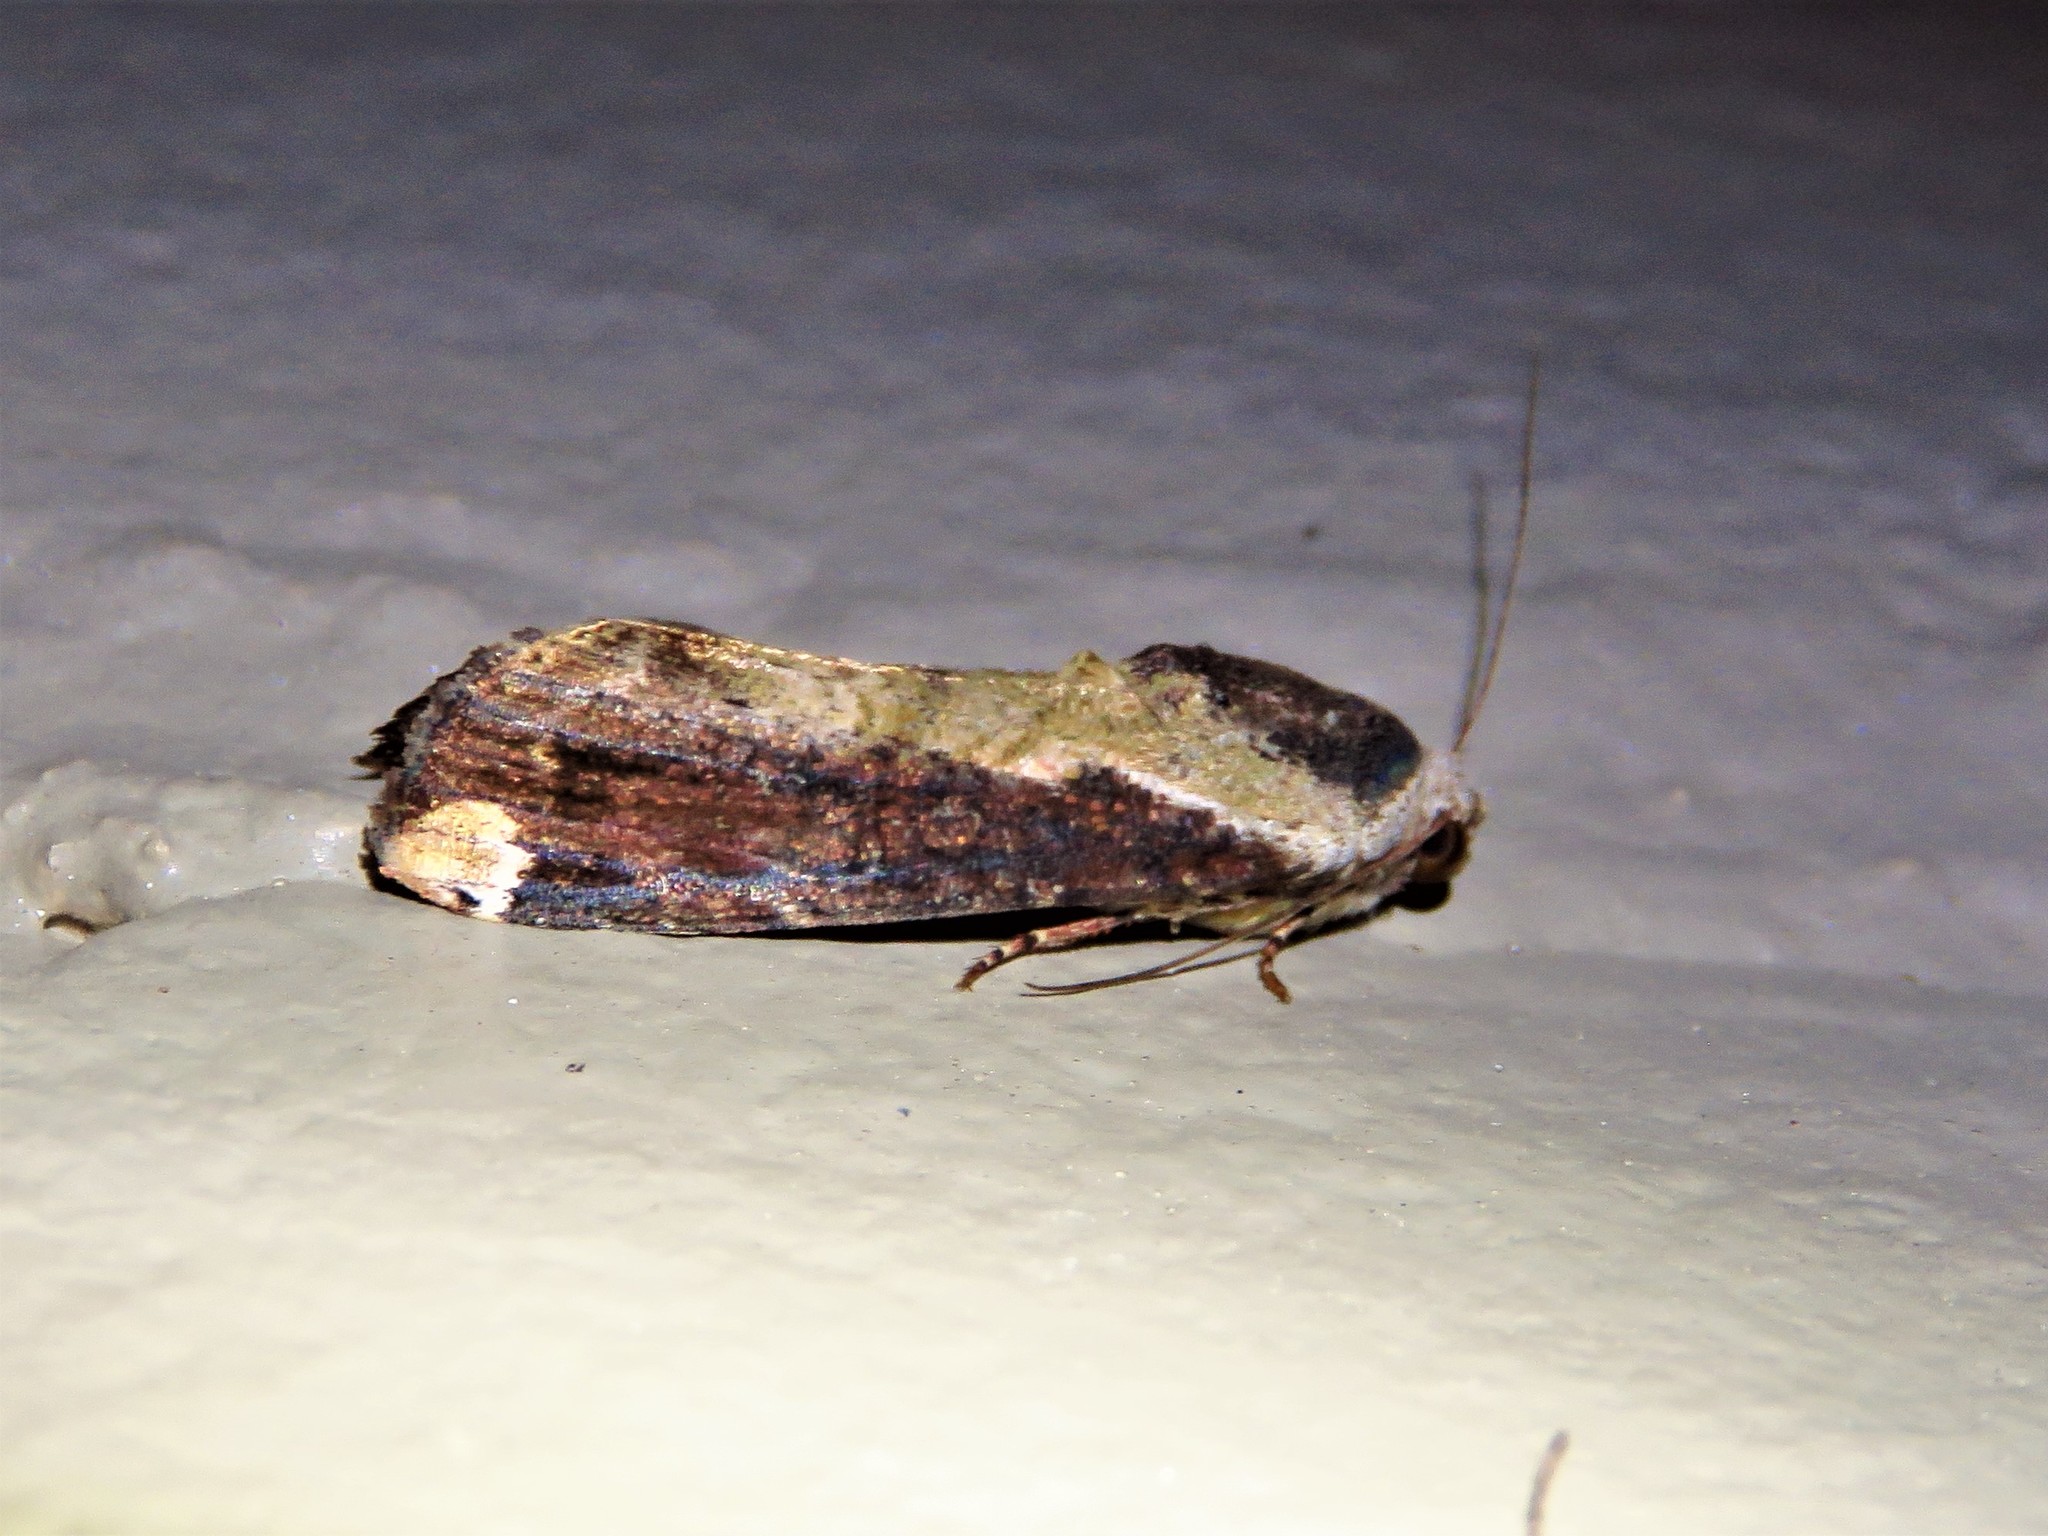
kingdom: Animalia
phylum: Arthropoda
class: Insecta
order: Lepidoptera
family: Noctuidae
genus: Magusa
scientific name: Magusa divaricata
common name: Orb narrow-winged moth
